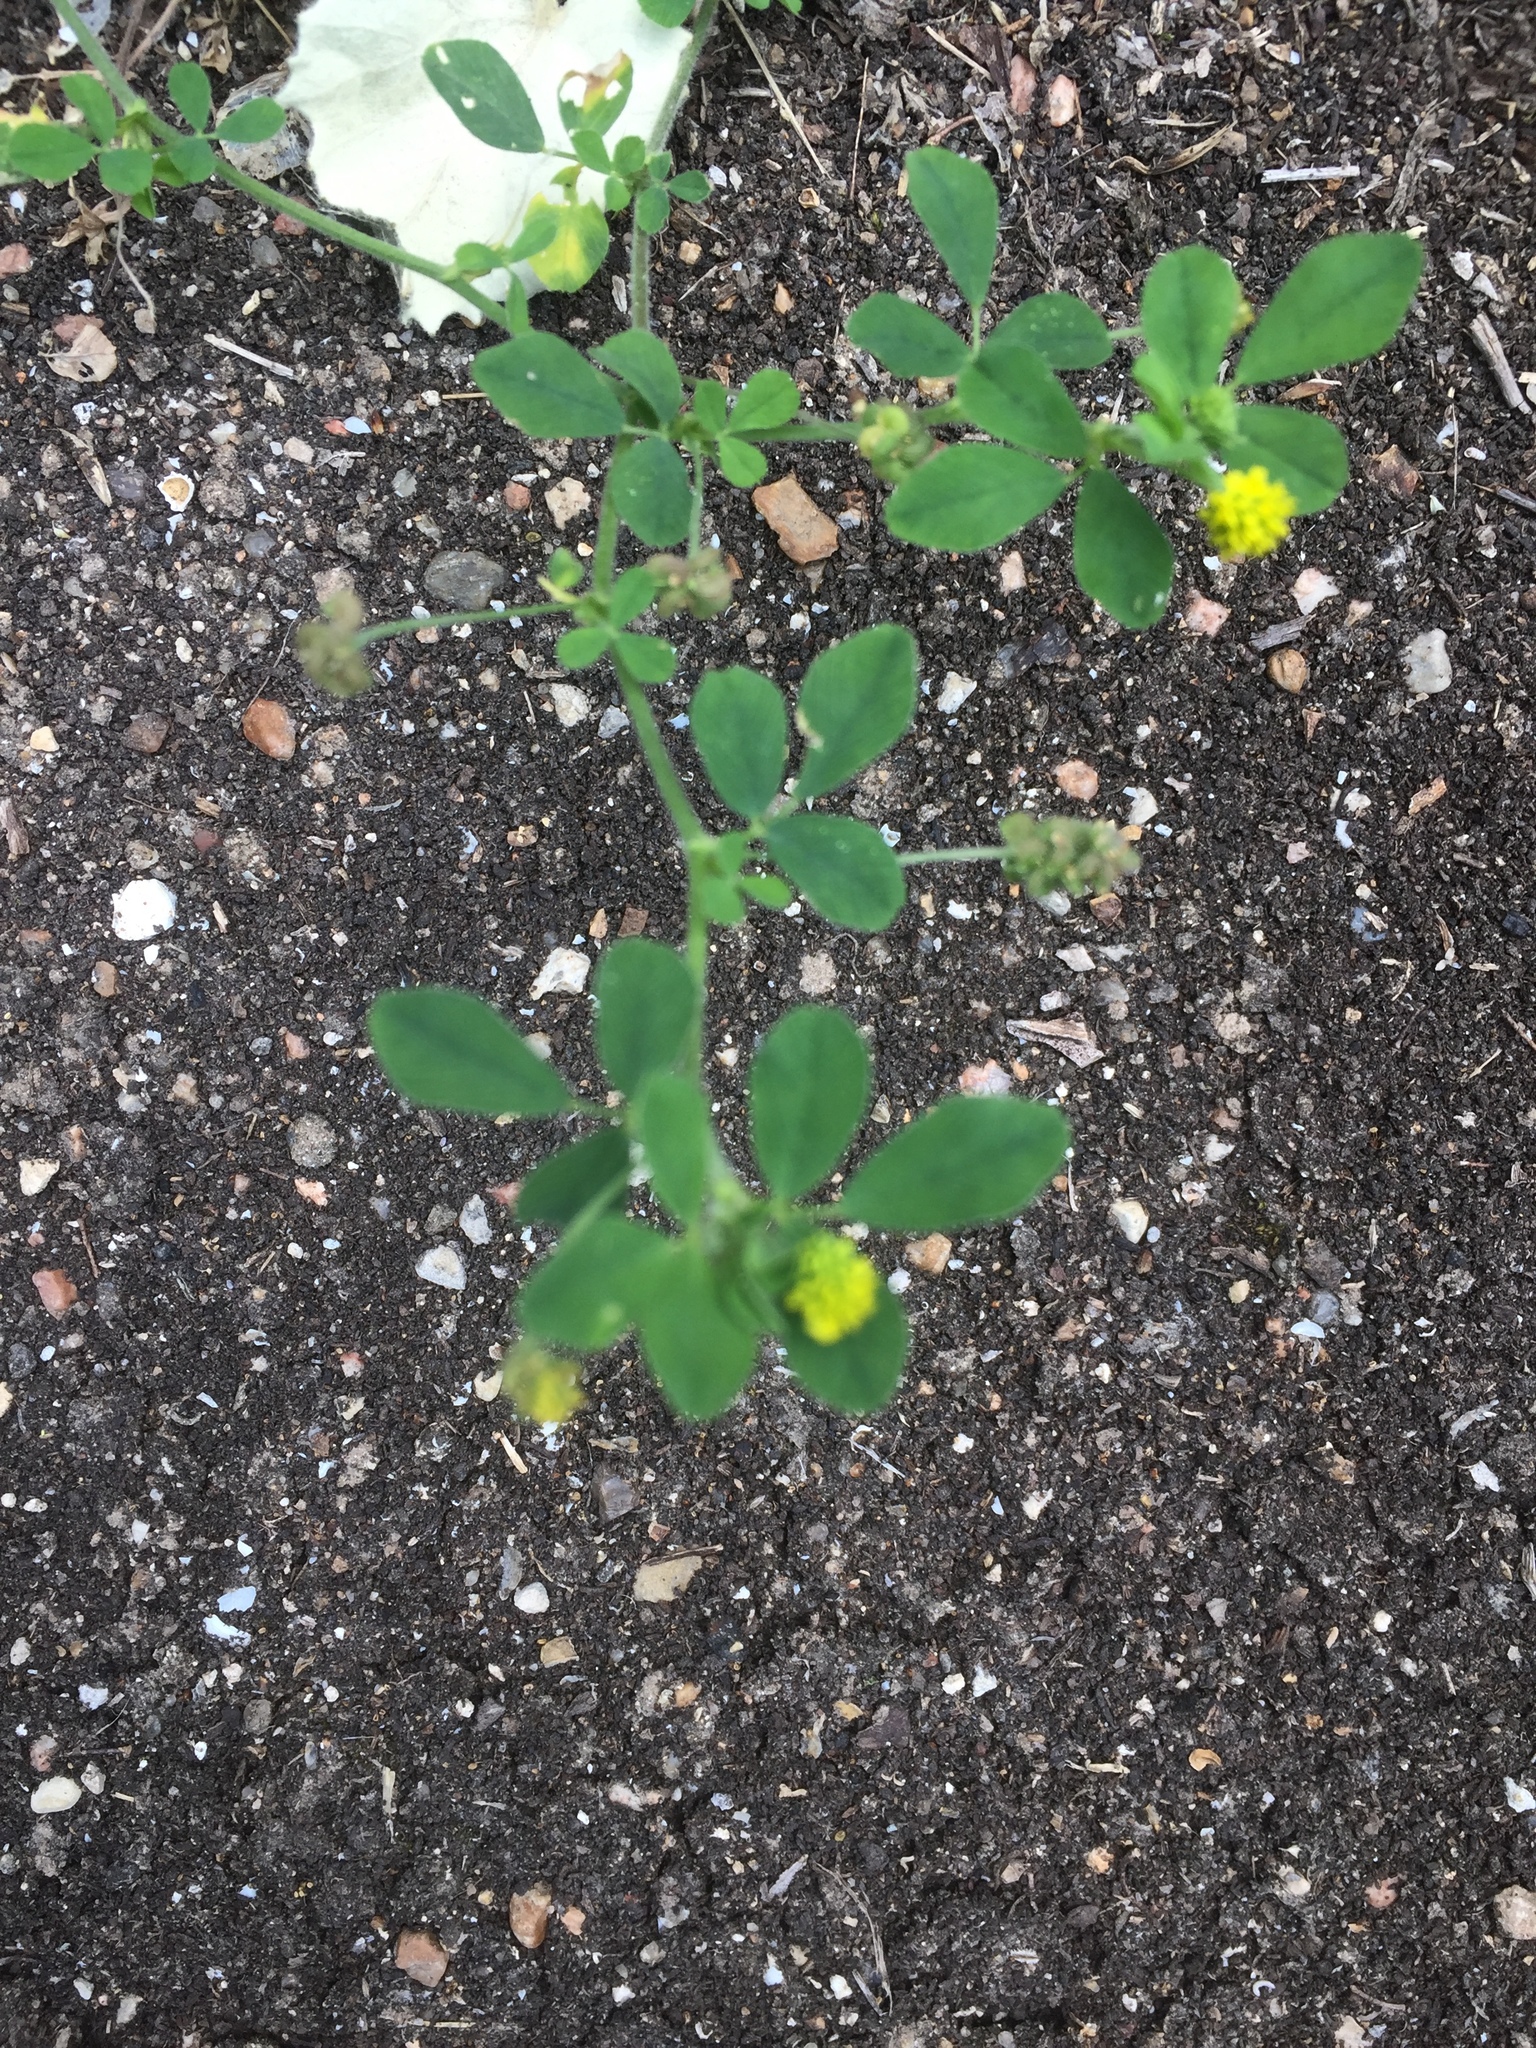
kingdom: Plantae
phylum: Tracheophyta
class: Magnoliopsida
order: Fabales
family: Fabaceae
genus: Medicago
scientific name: Medicago lupulina
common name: Black medick
